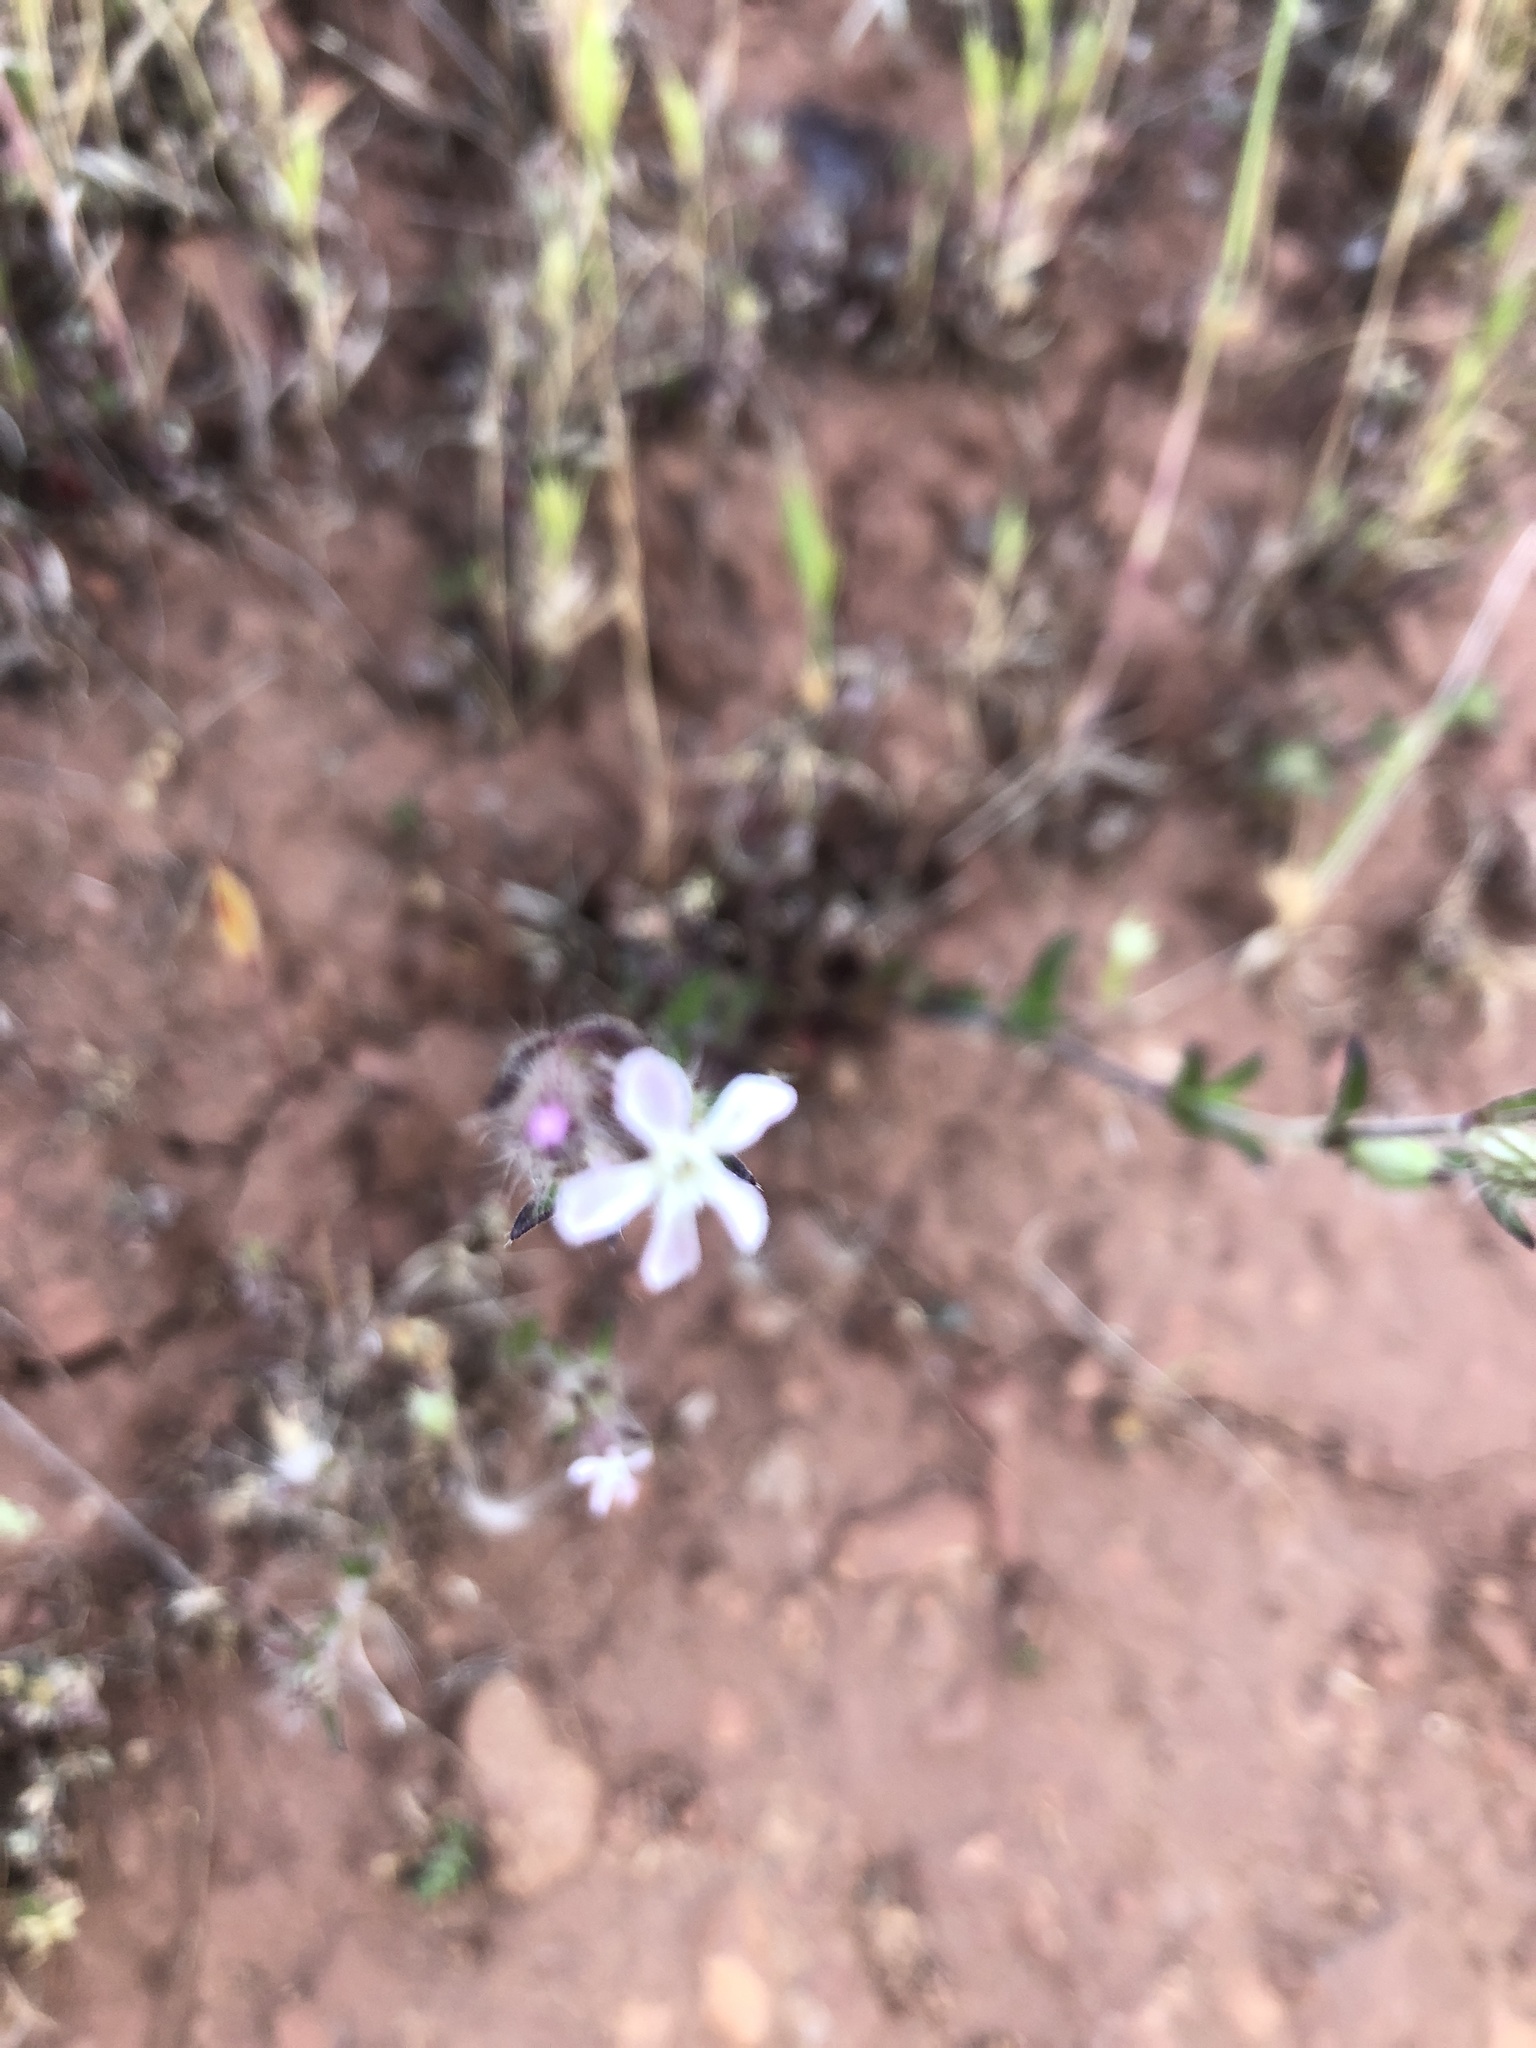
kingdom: Plantae
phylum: Tracheophyta
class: Magnoliopsida
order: Caryophyllales
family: Caryophyllaceae
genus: Silene
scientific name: Silene gallica
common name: Small-flowered catchfly
